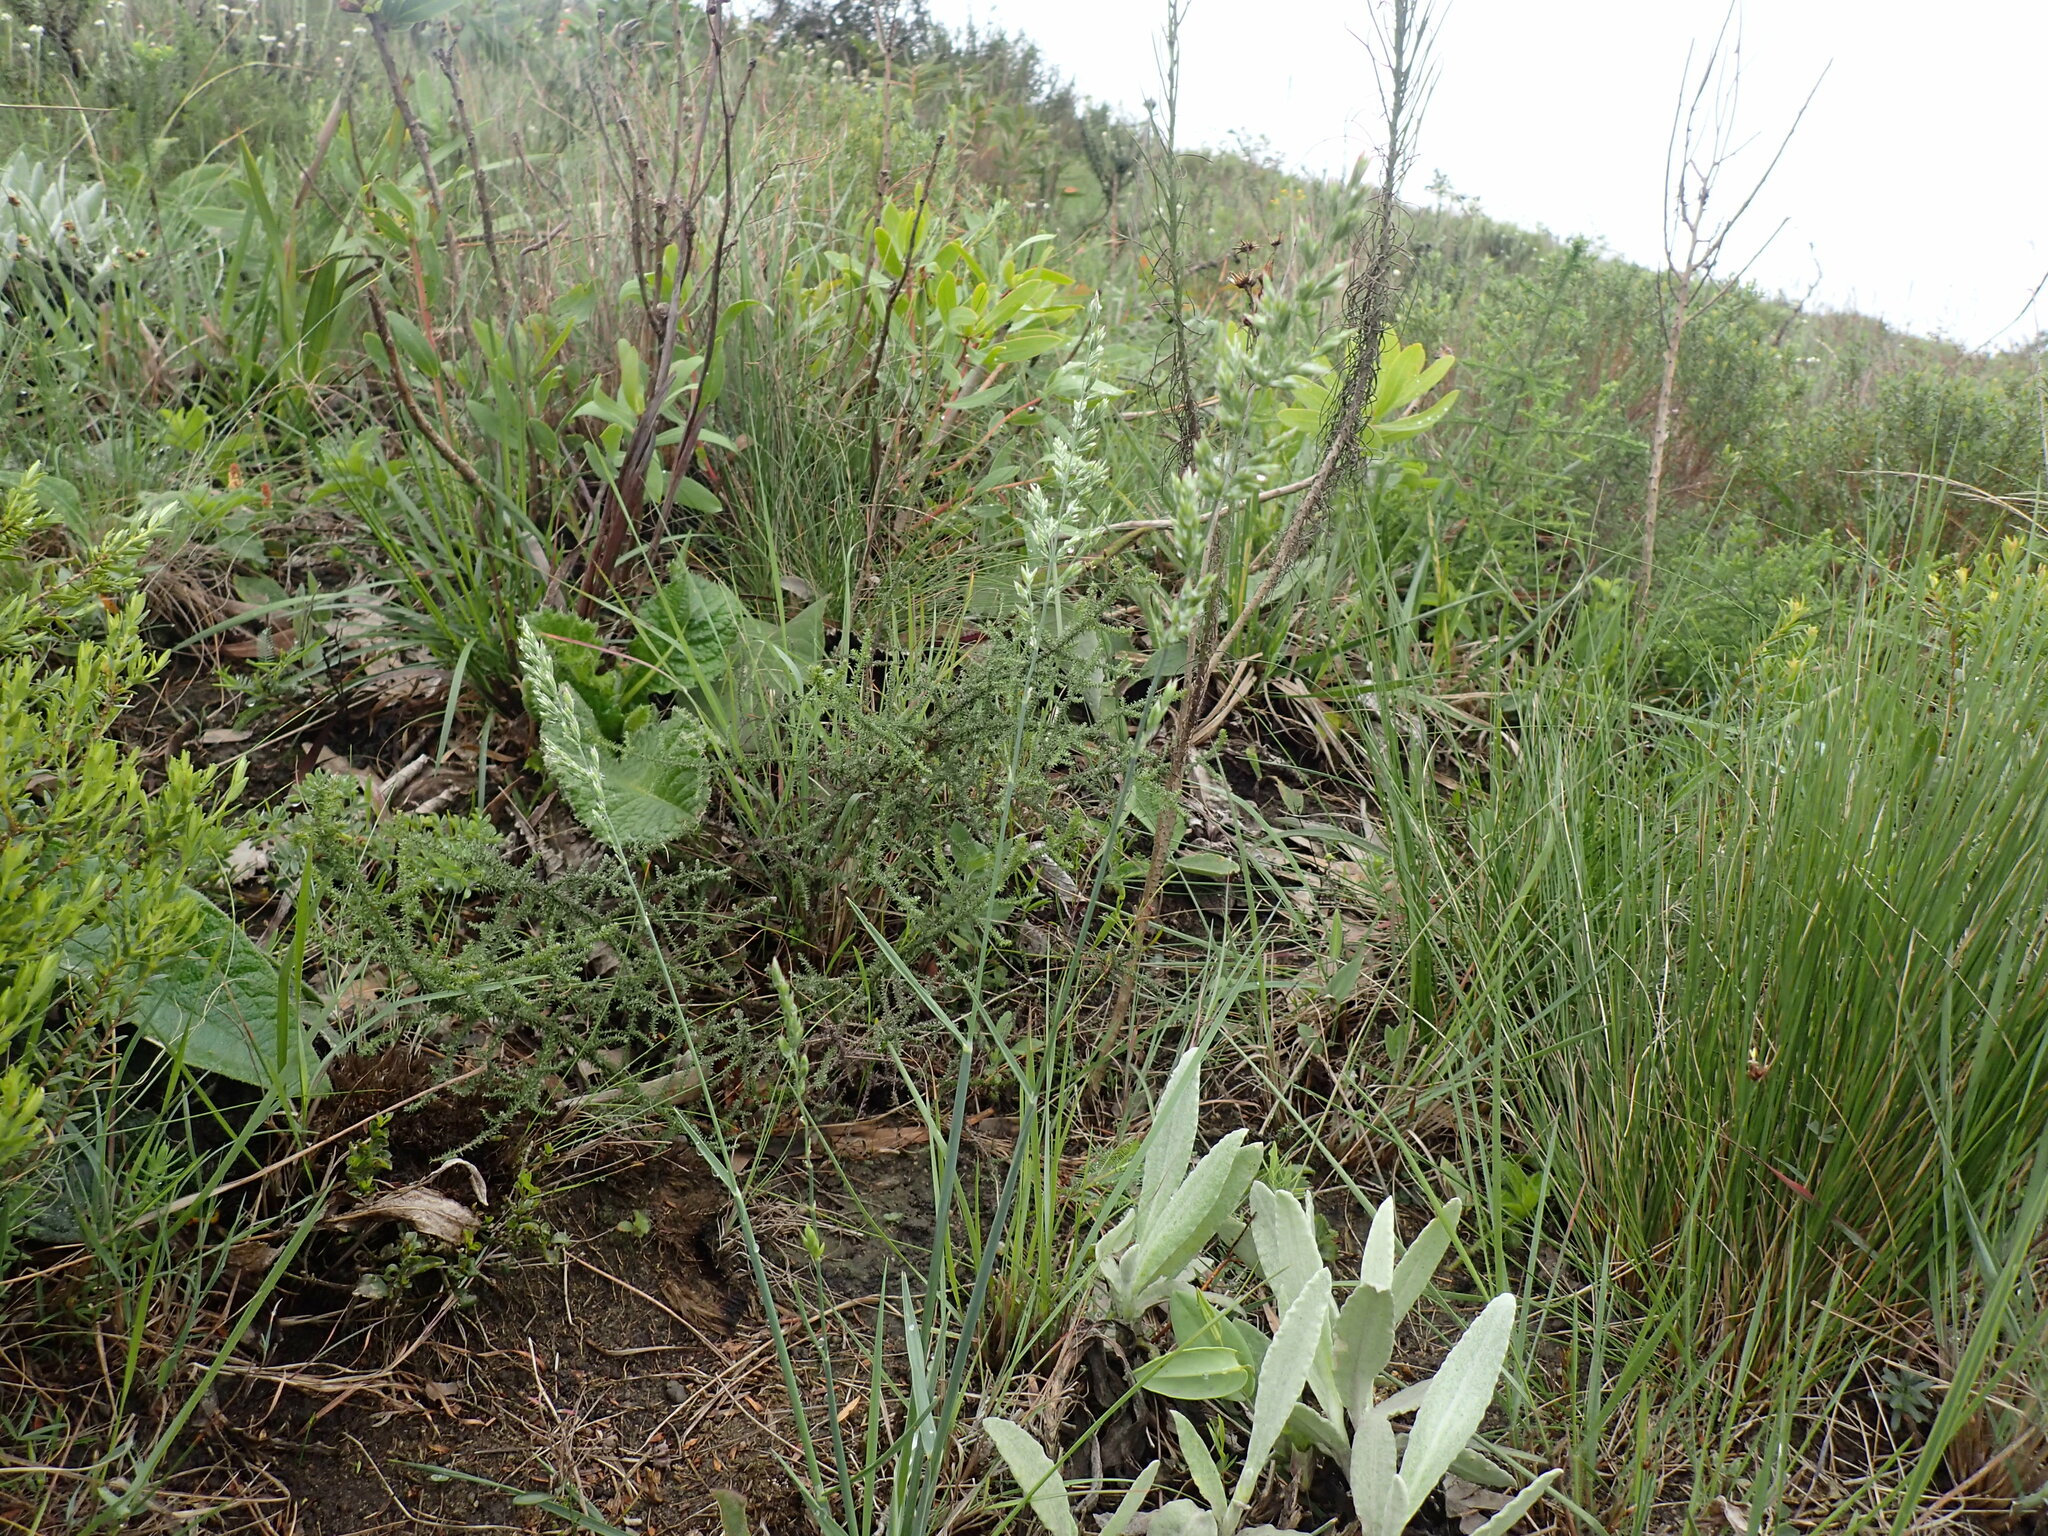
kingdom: Plantae
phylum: Tracheophyta
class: Liliopsida
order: Poales
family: Poaceae
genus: Koeleria
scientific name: Koeleria capensis
